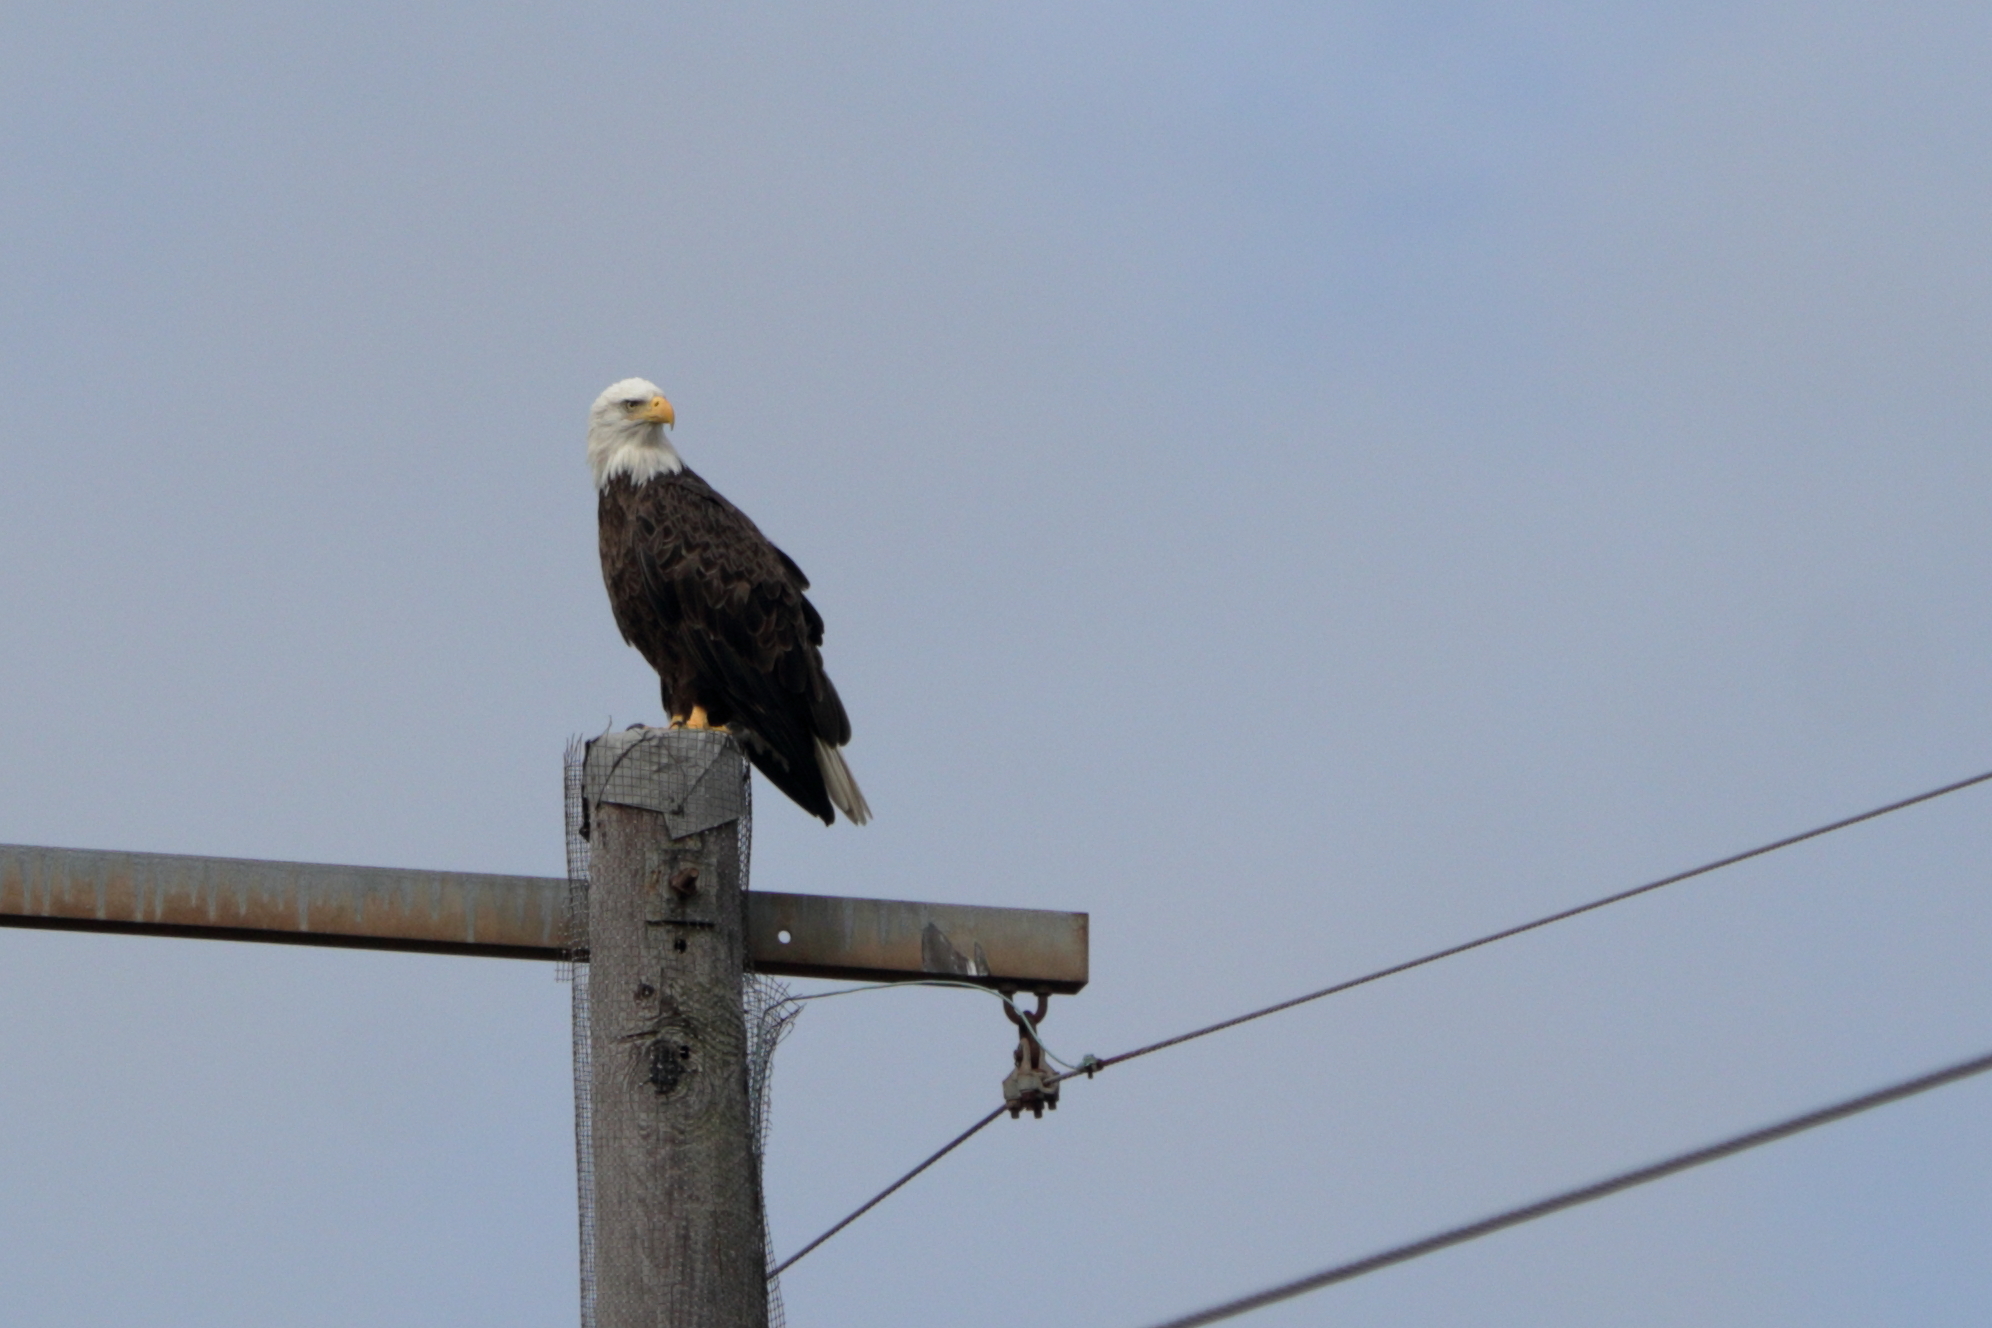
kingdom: Animalia
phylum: Chordata
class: Aves
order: Accipitriformes
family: Accipitridae
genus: Haliaeetus
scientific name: Haliaeetus leucocephalus
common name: Bald eagle
